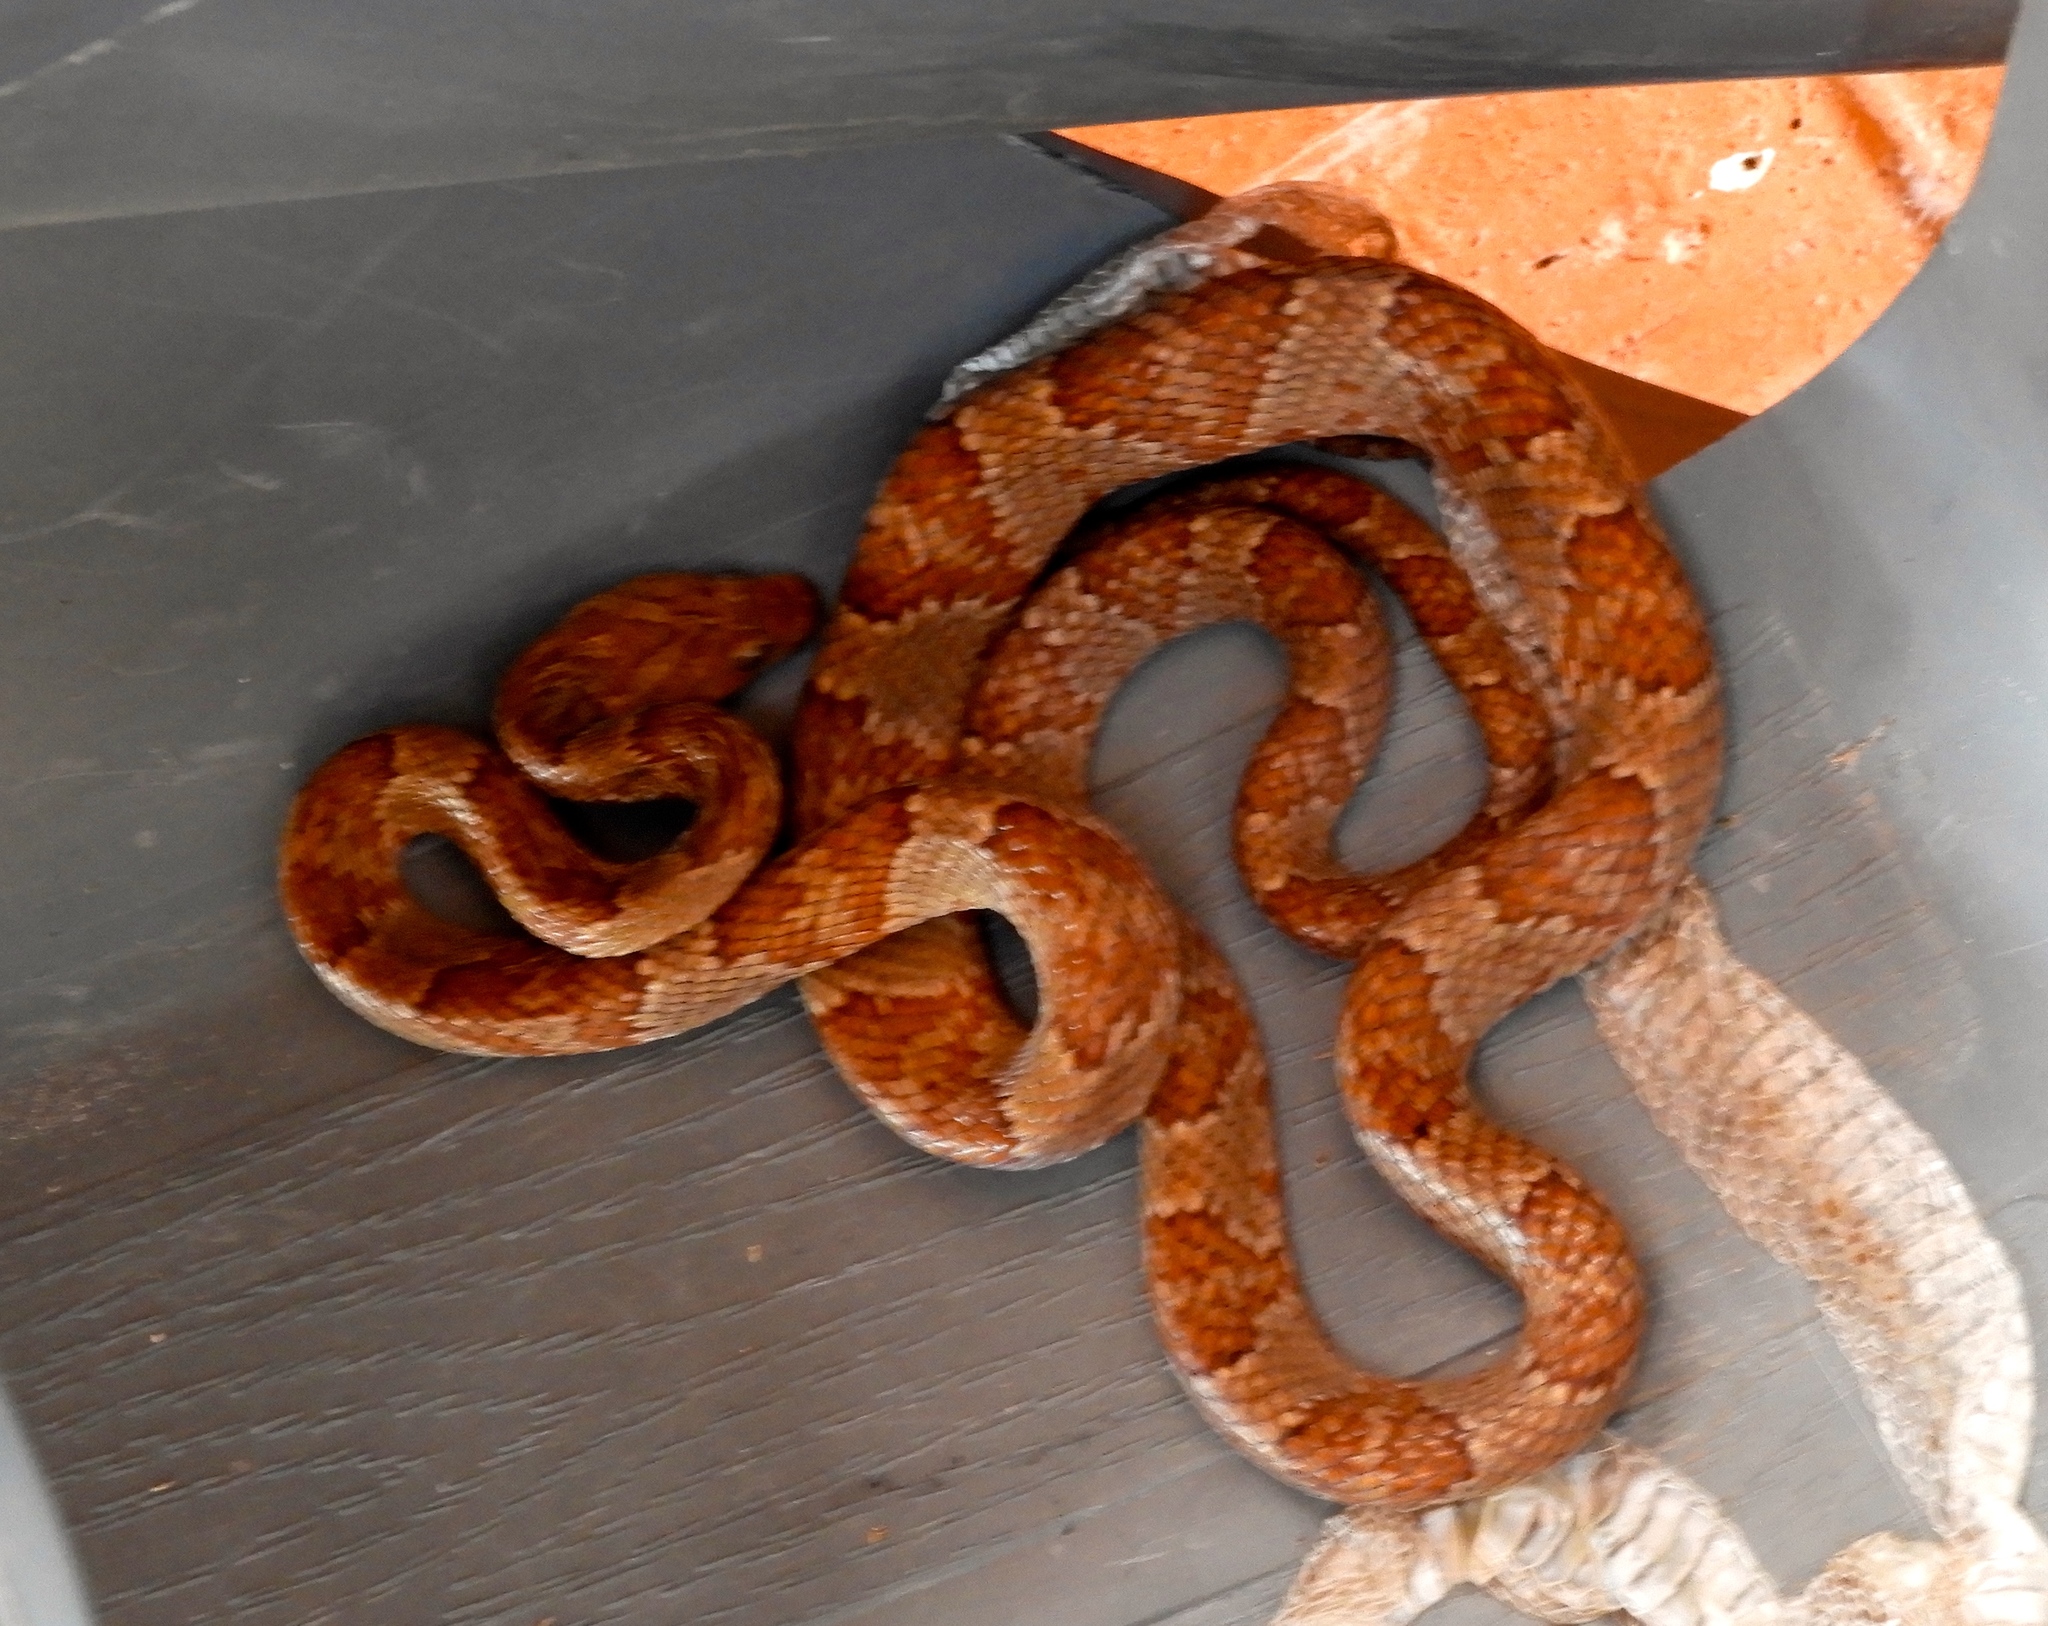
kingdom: Animalia
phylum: Chordata
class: Squamata
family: Colubridae
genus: Trimorphodon
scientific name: Trimorphodon paucimaculatus
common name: Sinaloan lyresnake
